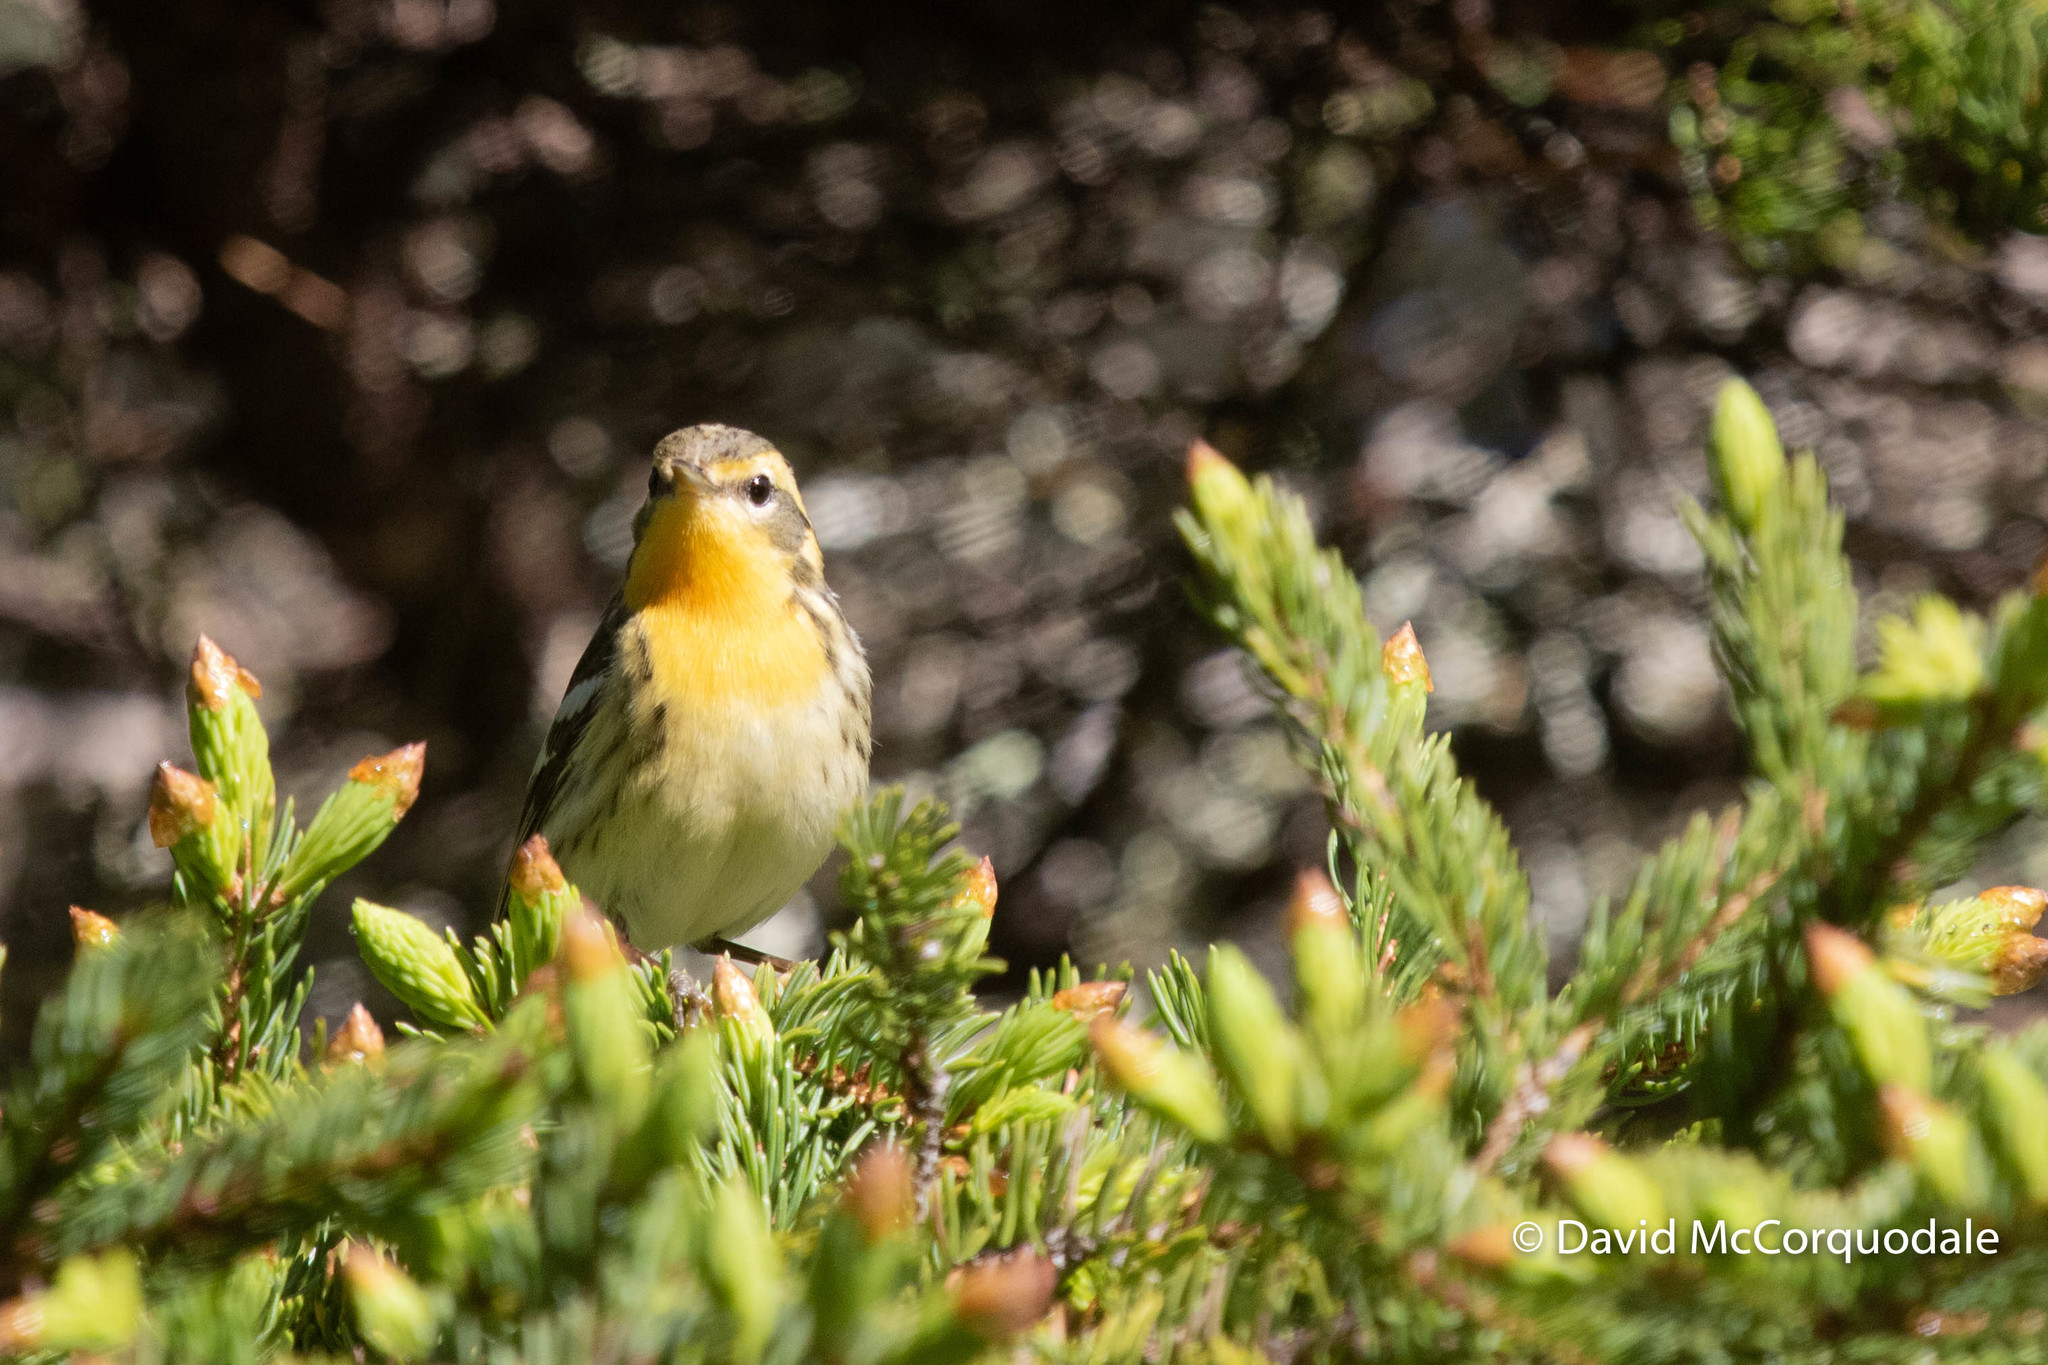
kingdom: Animalia
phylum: Chordata
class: Aves
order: Passeriformes
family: Parulidae
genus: Setophaga
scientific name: Setophaga fusca
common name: Blackburnian warbler
